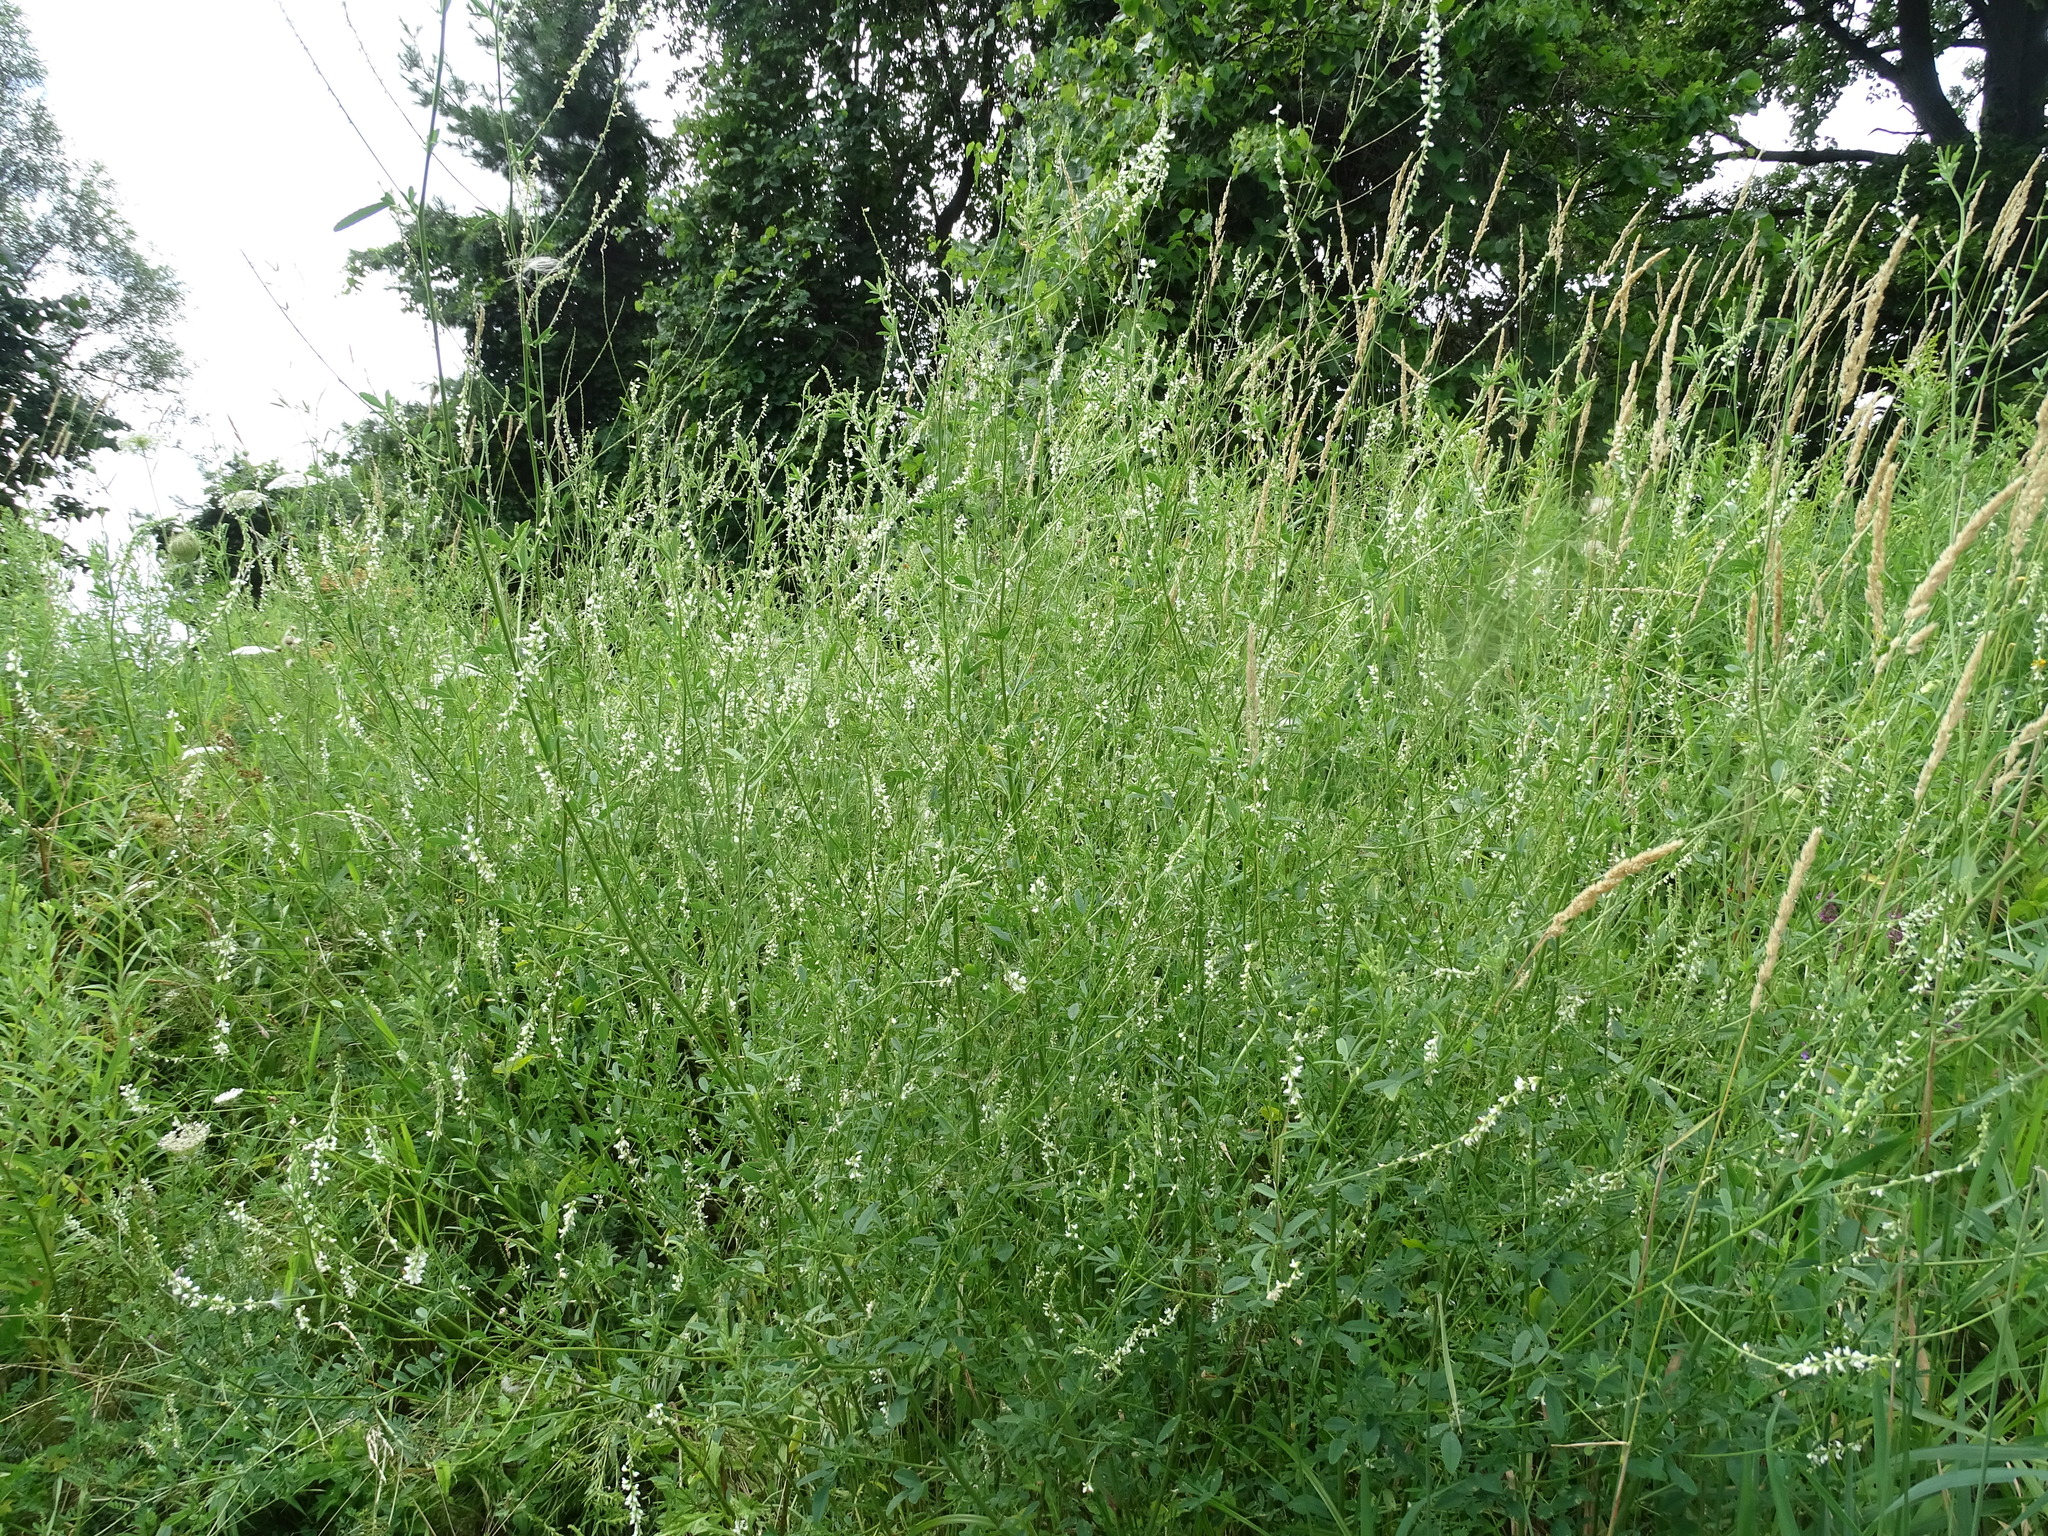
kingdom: Plantae
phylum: Tracheophyta
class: Magnoliopsida
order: Fabales
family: Fabaceae
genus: Melilotus
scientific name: Melilotus albus
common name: White melilot
